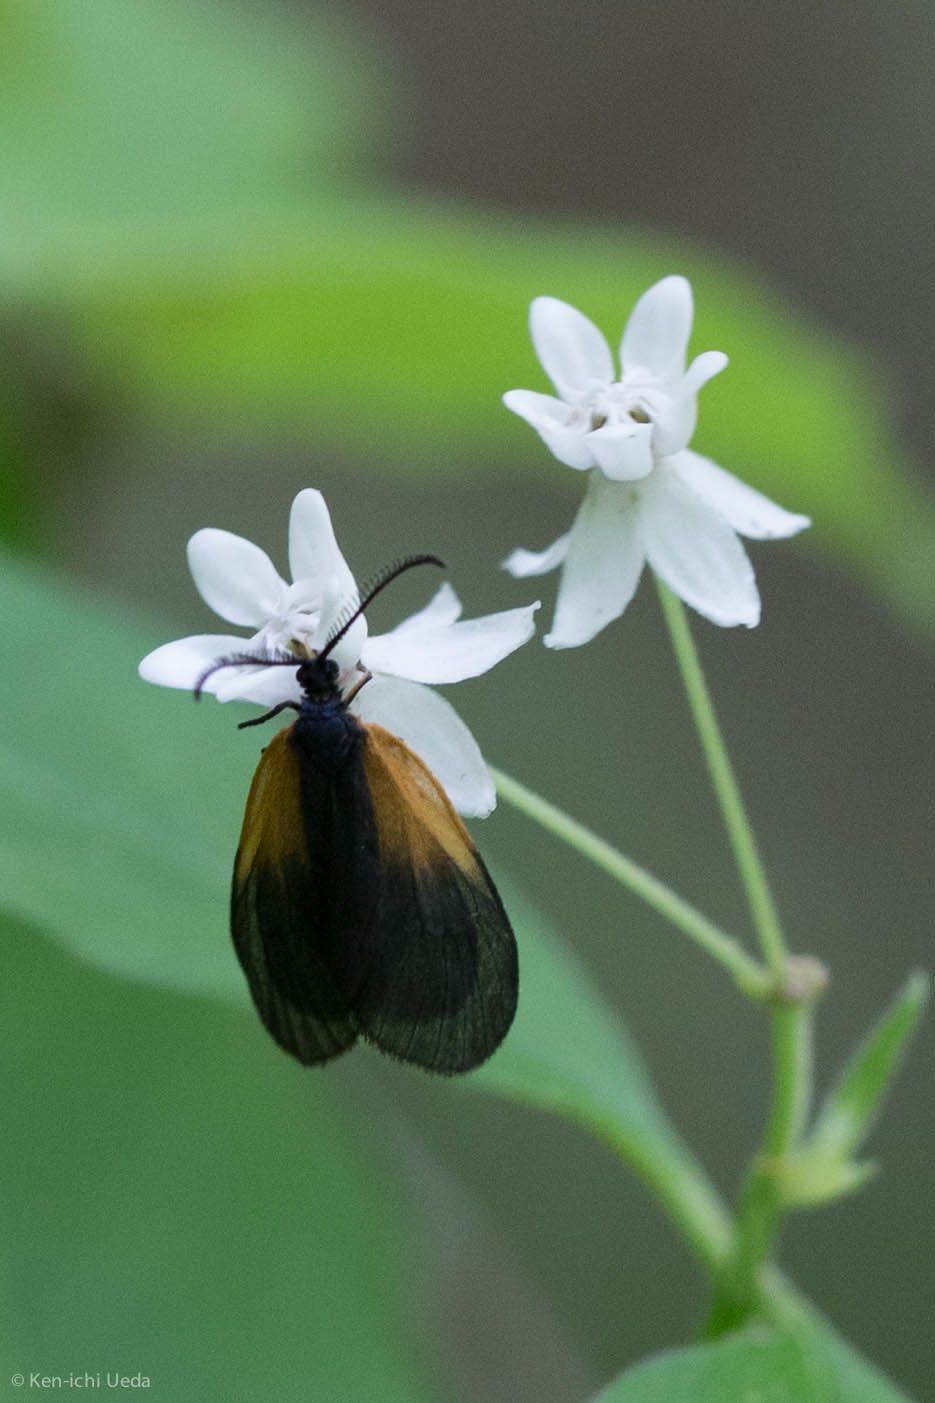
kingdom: Animalia
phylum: Arthropoda
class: Insecta
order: Lepidoptera
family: Zygaenidae
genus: Malthaca
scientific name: Malthaca dimidiata
